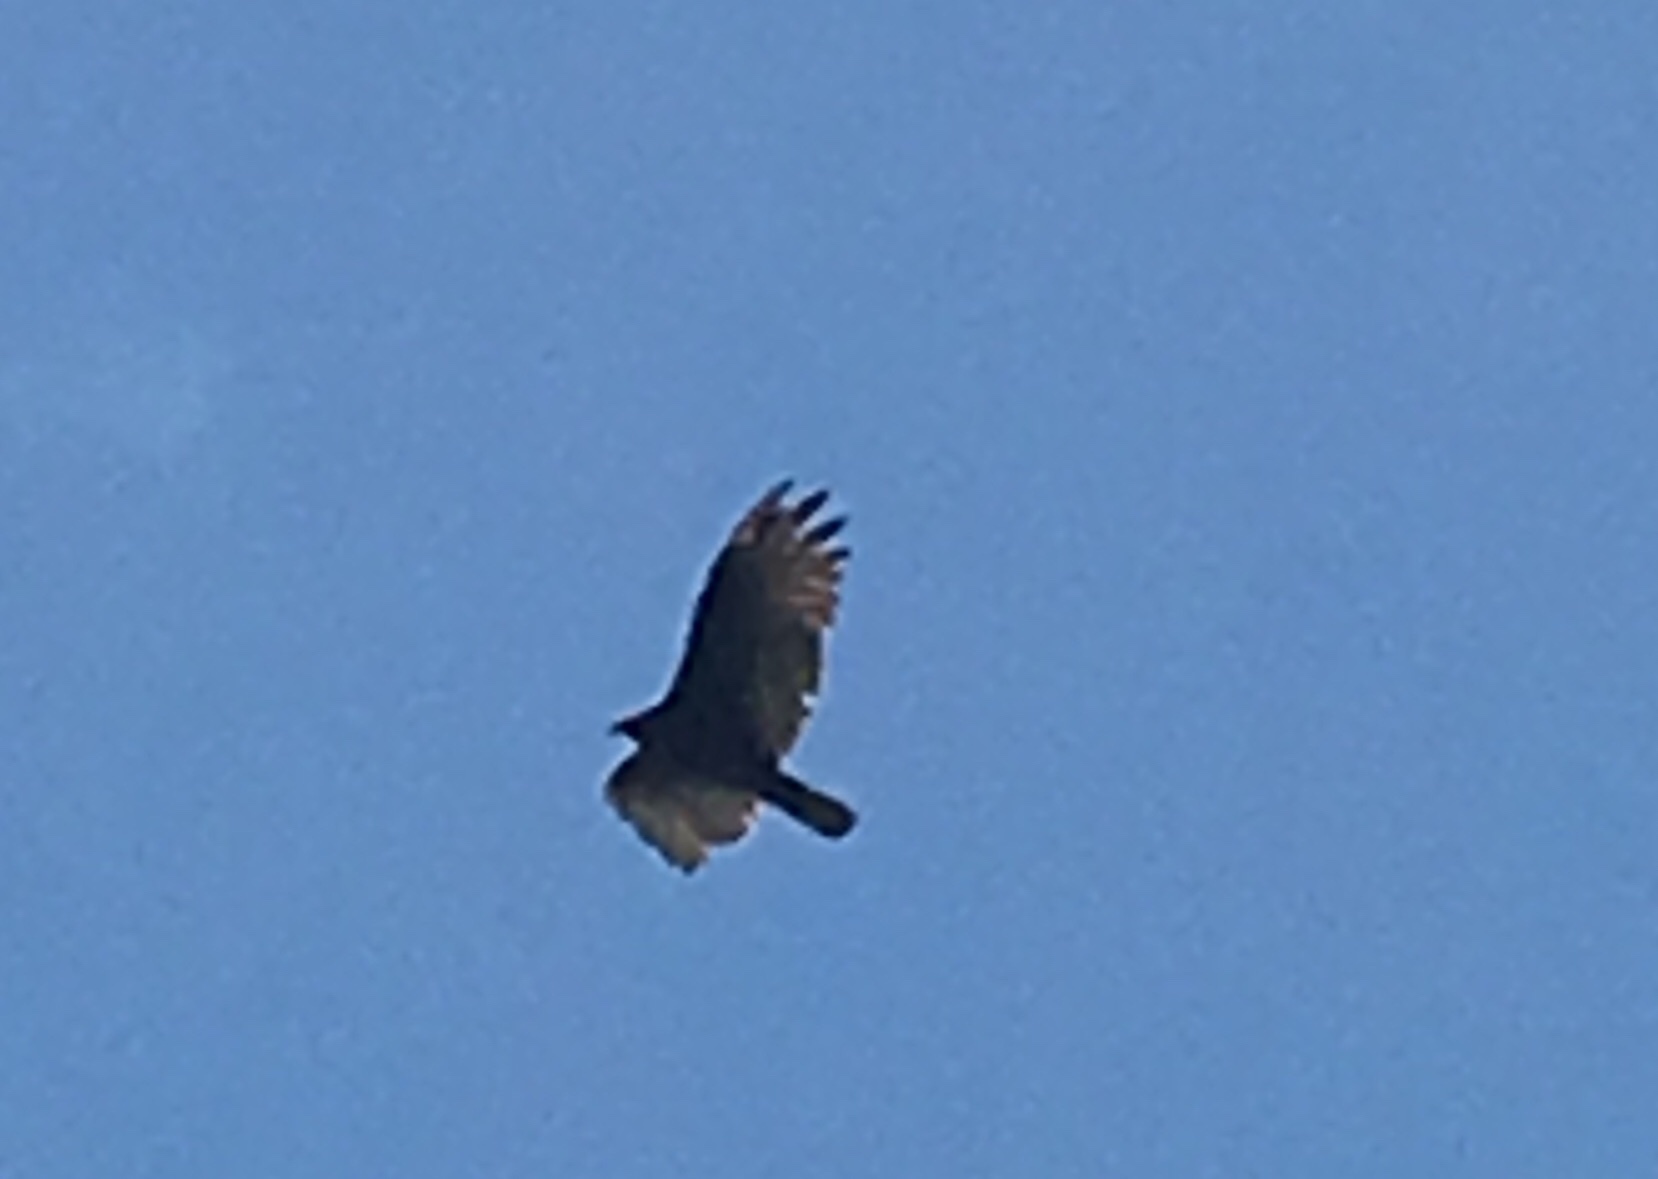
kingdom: Animalia
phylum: Chordata
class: Aves
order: Accipitriformes
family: Cathartidae
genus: Cathartes
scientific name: Cathartes aura
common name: Turkey vulture
